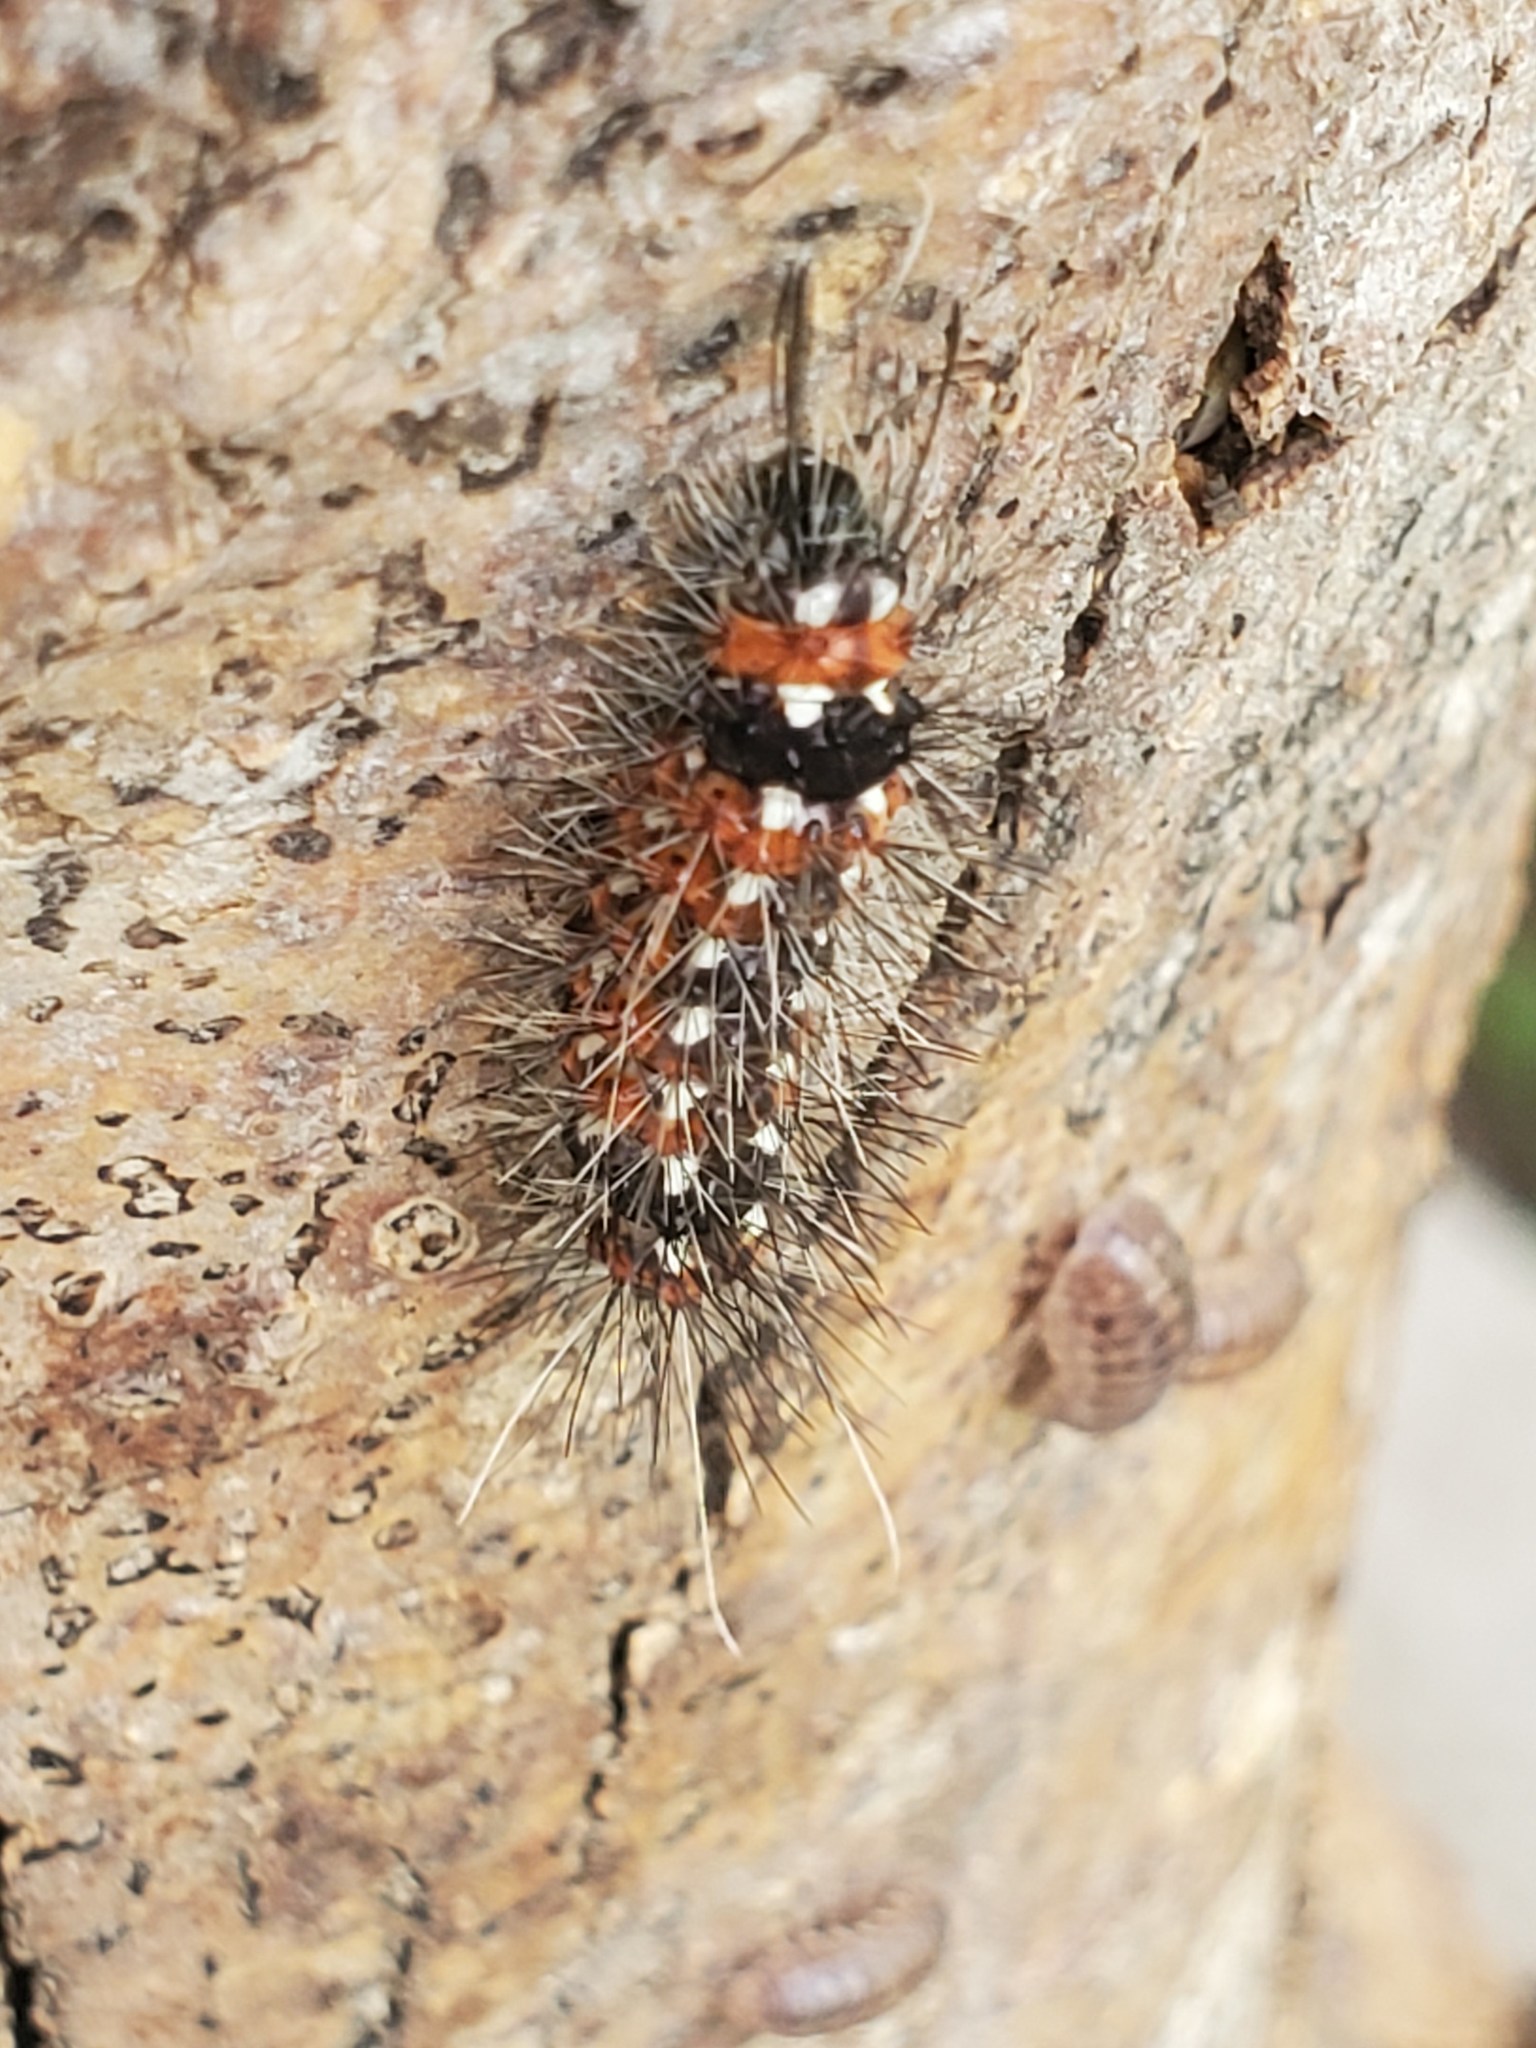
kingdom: Animalia
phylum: Arthropoda
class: Insecta
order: Lepidoptera
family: Erebidae
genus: Pareuchaetes
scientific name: Pareuchaetes insulata
